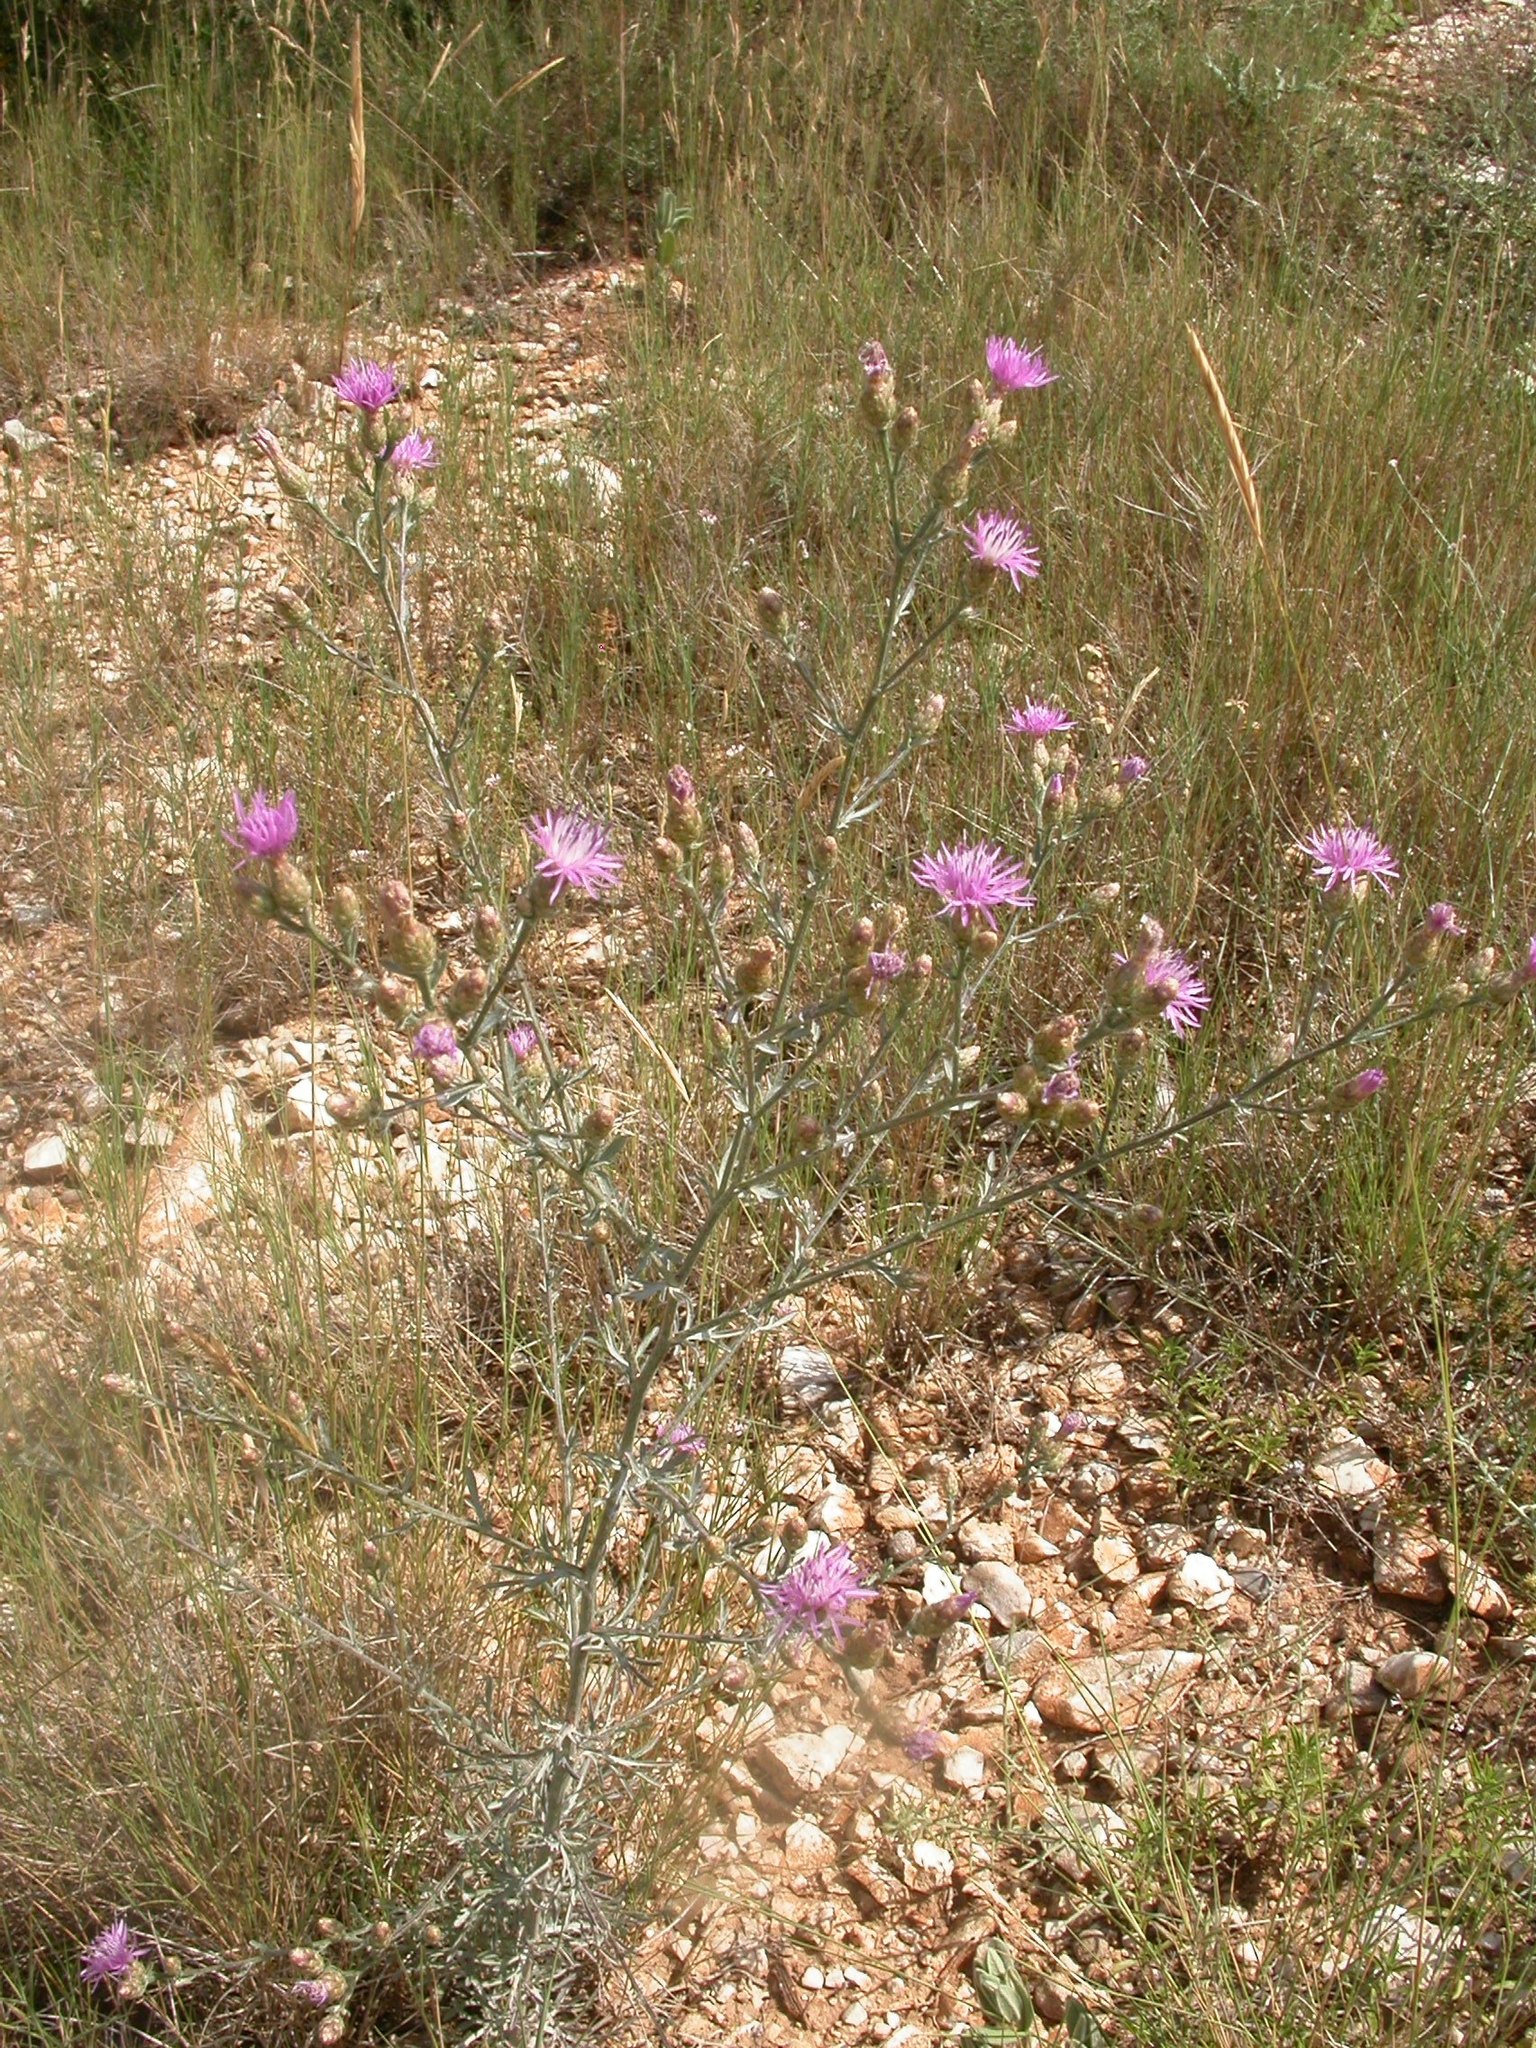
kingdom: Plantae
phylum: Tracheophyta
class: Magnoliopsida
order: Asterales
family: Asteraceae
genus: Centaurea
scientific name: Centaurea paniculata
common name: Jersey knapweed
